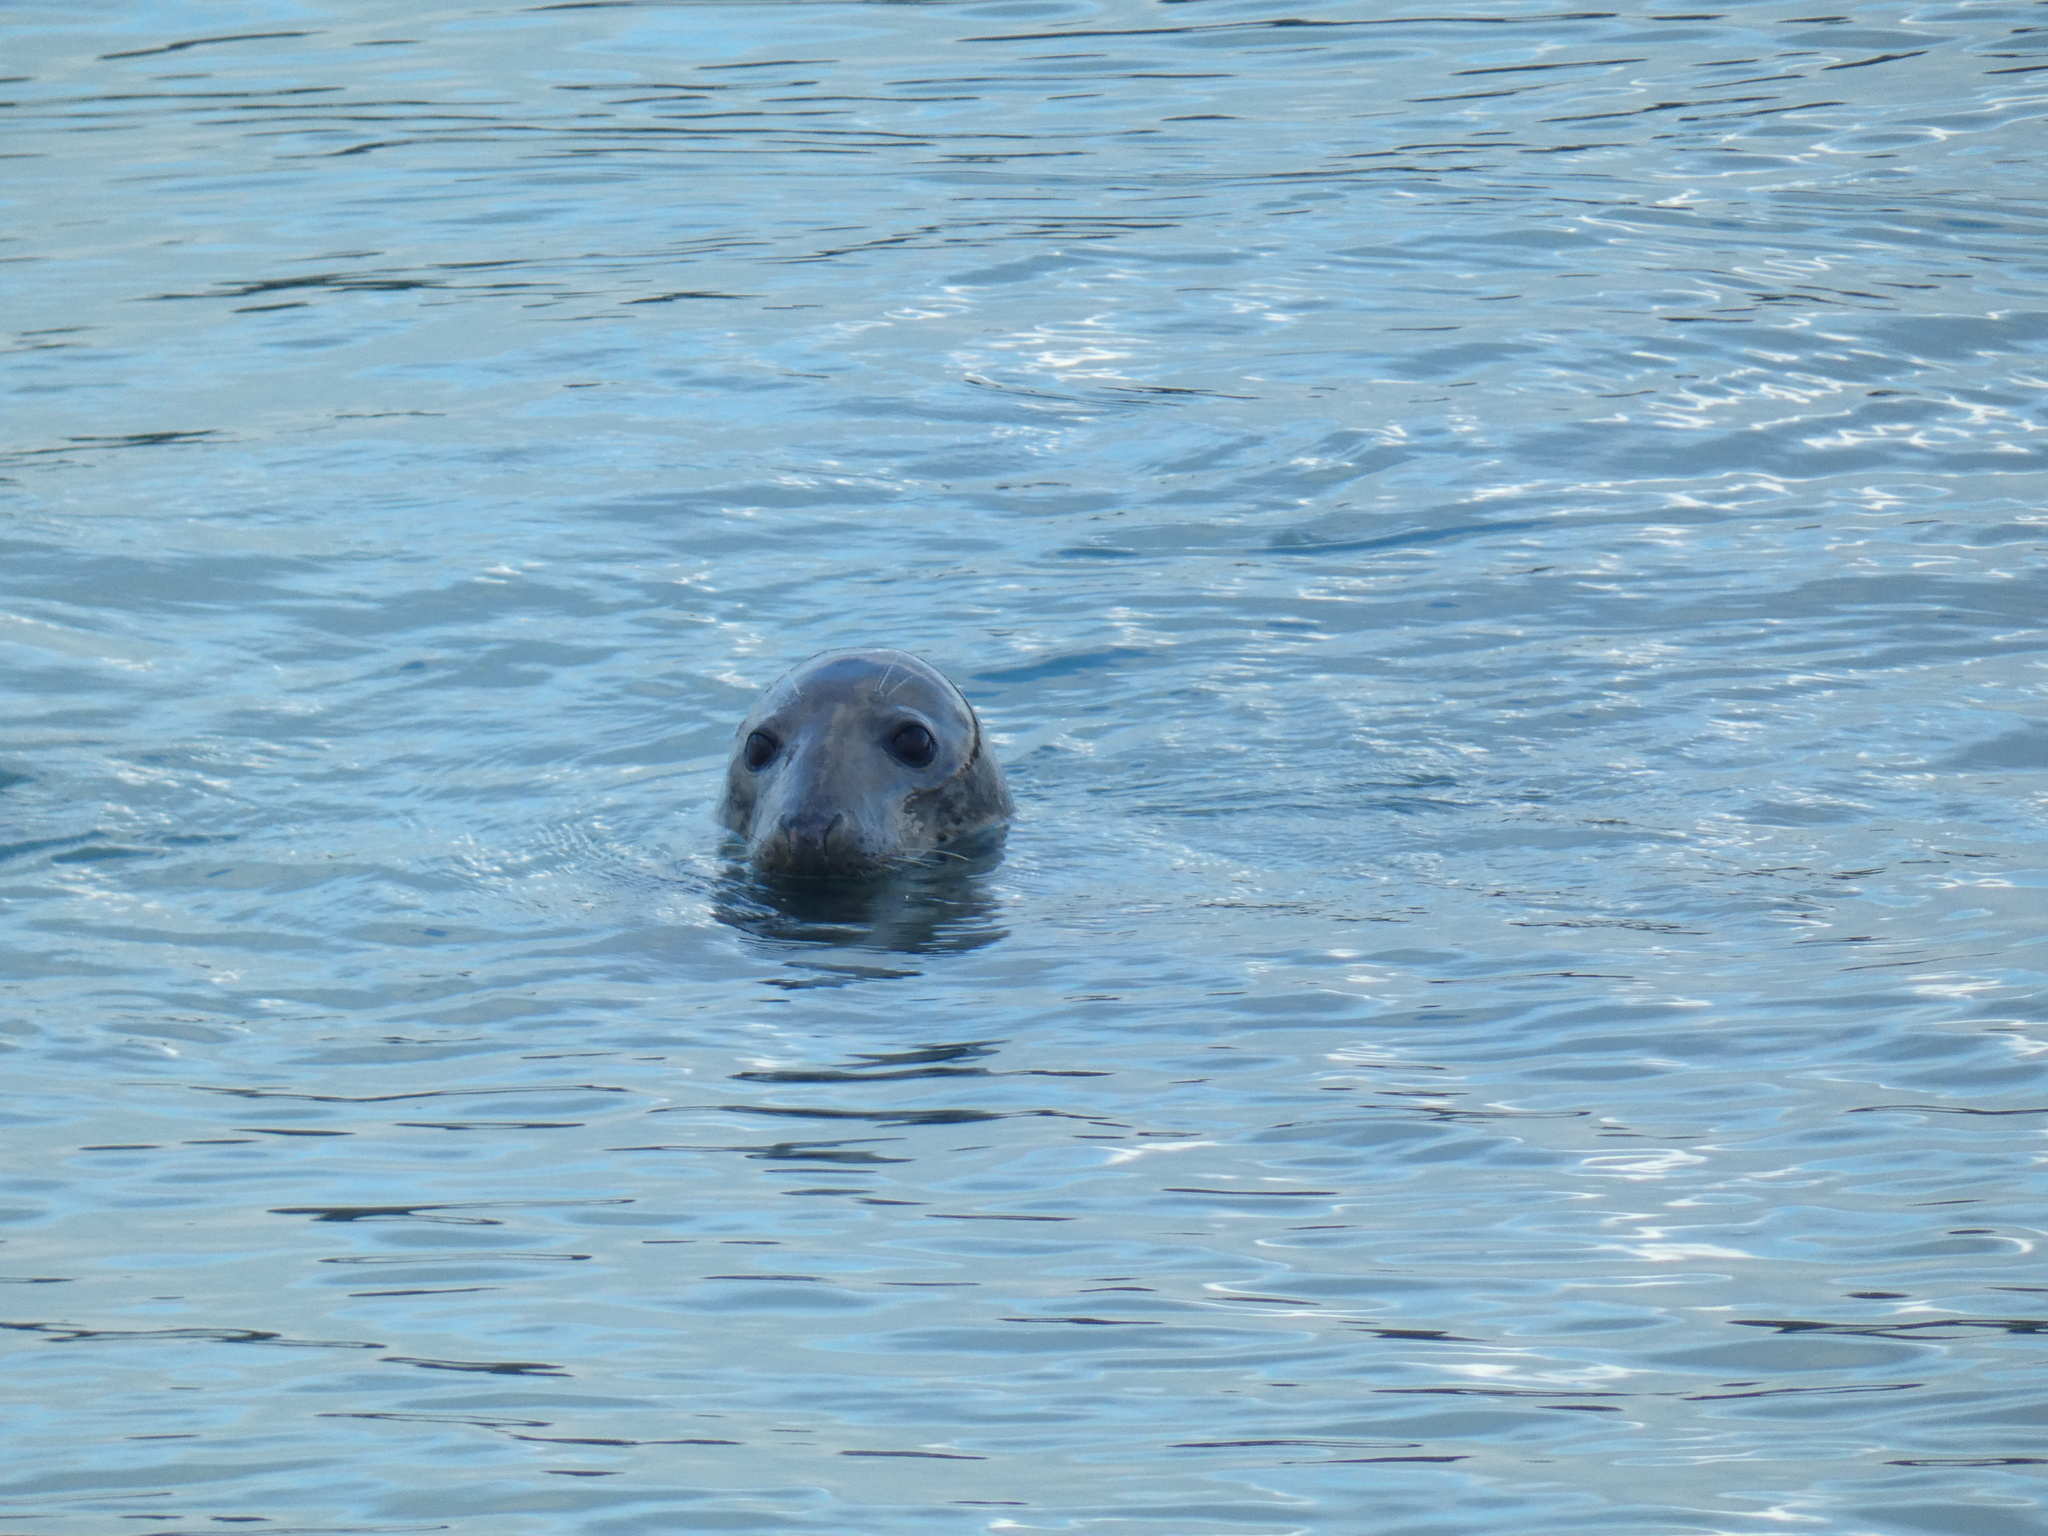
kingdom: Animalia
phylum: Chordata
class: Mammalia
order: Carnivora
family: Phocidae
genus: Halichoerus
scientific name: Halichoerus grypus
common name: Grey seal
